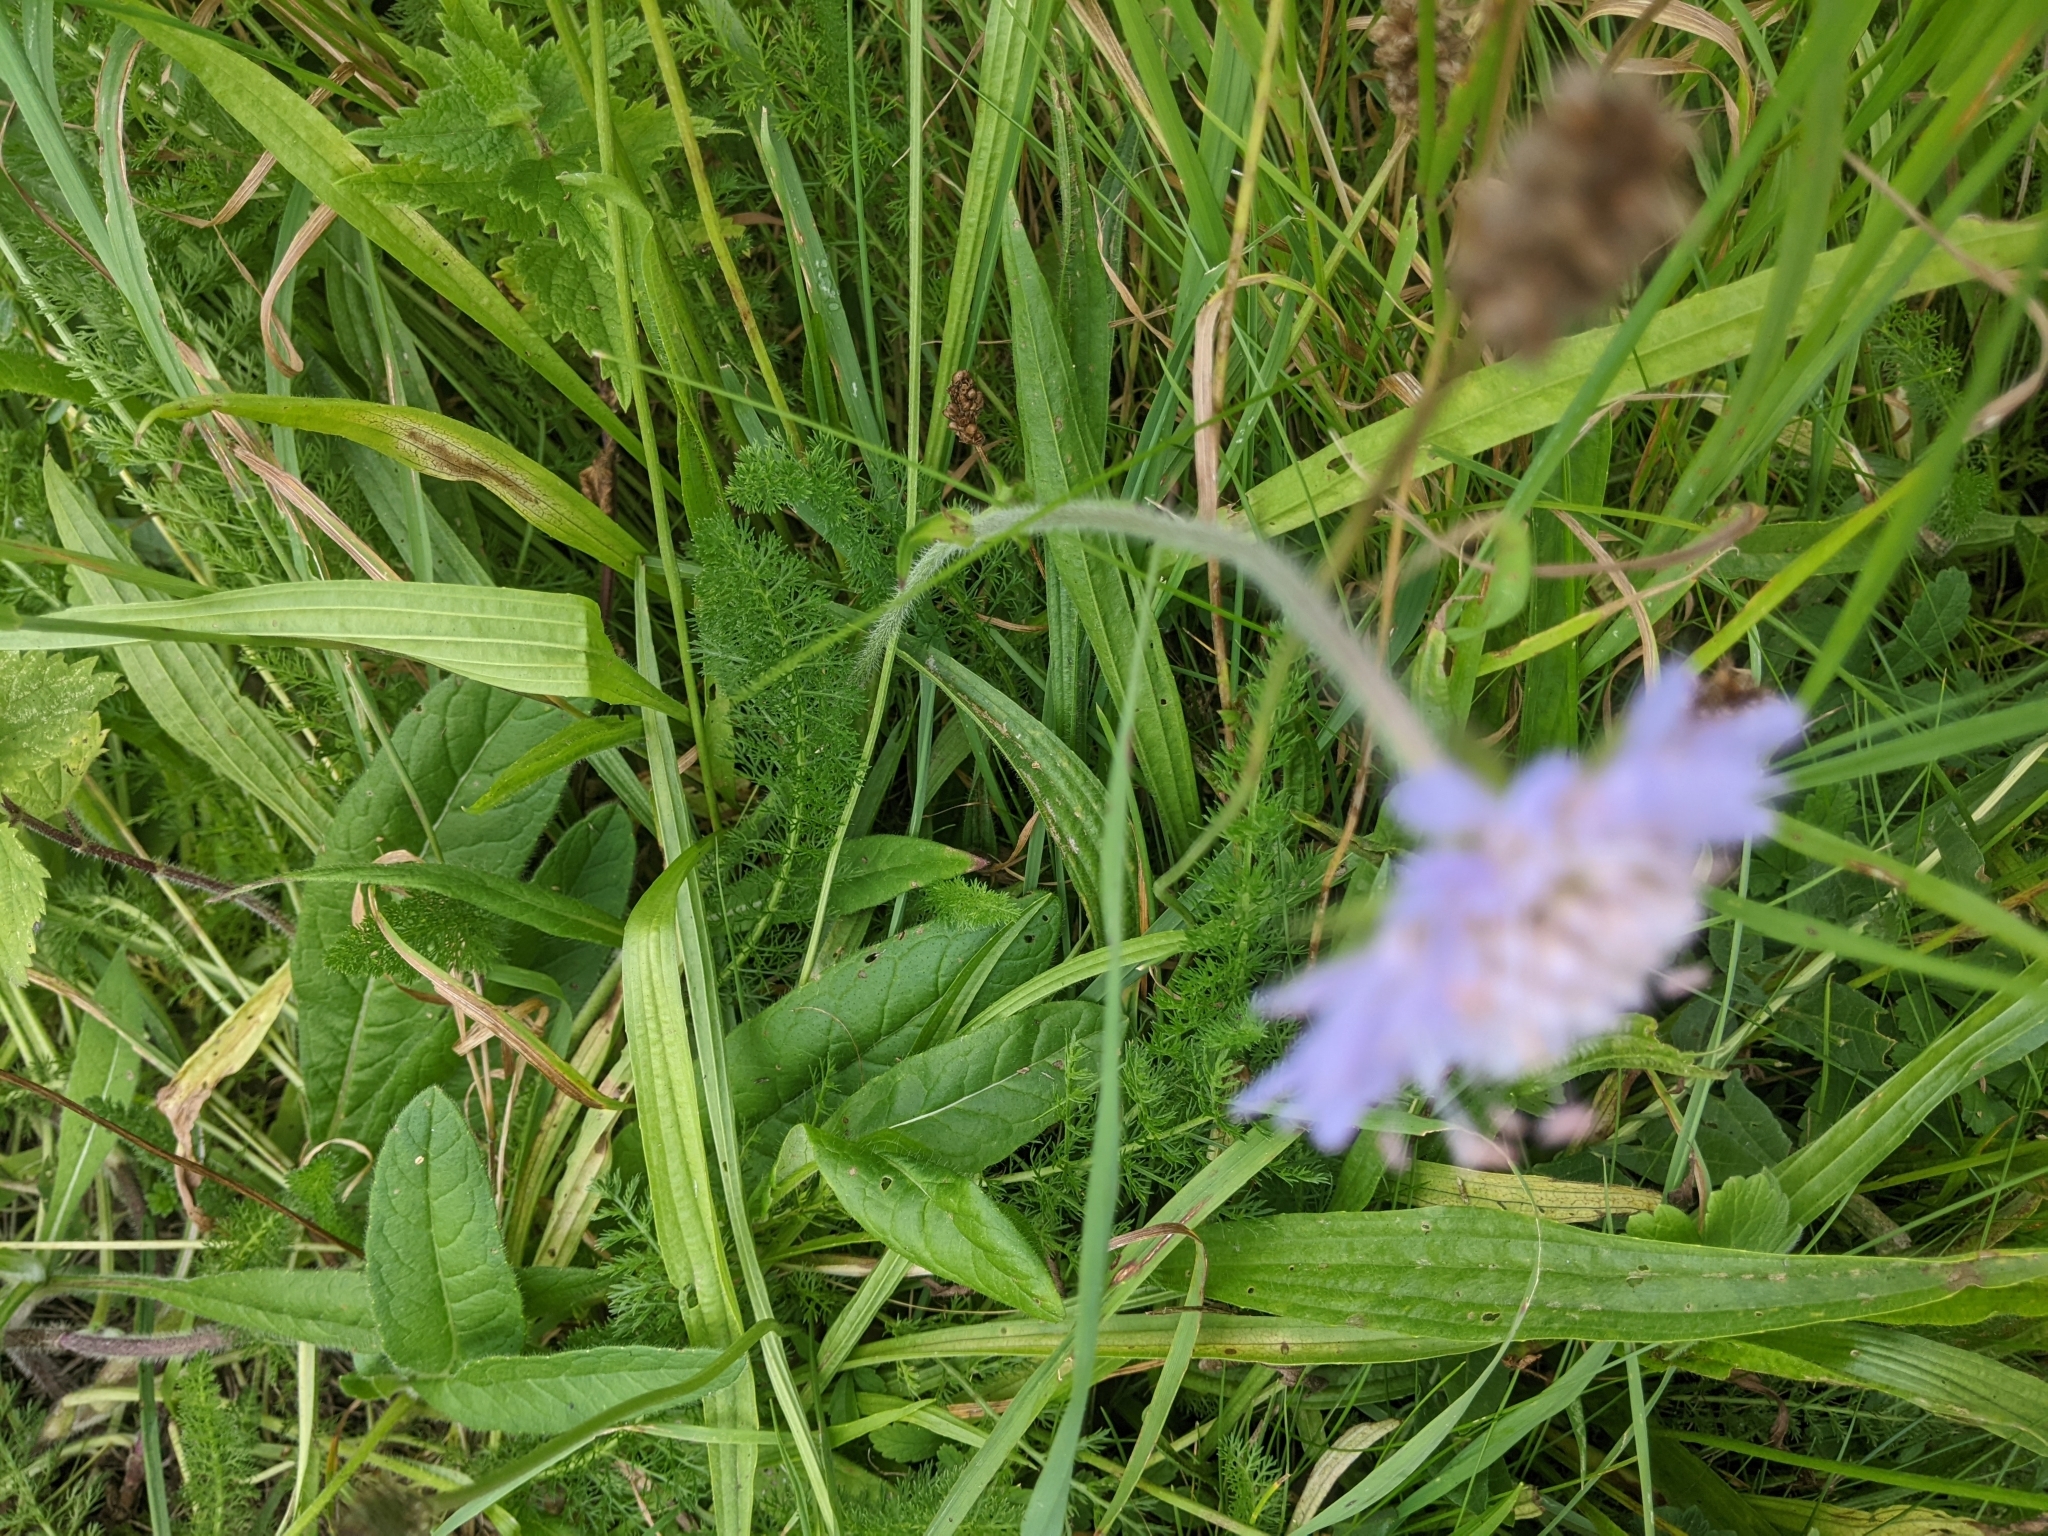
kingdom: Plantae
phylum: Tracheophyta
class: Magnoliopsida
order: Dipsacales
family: Caprifoliaceae
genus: Knautia
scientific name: Knautia arvensis
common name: Field scabiosa
